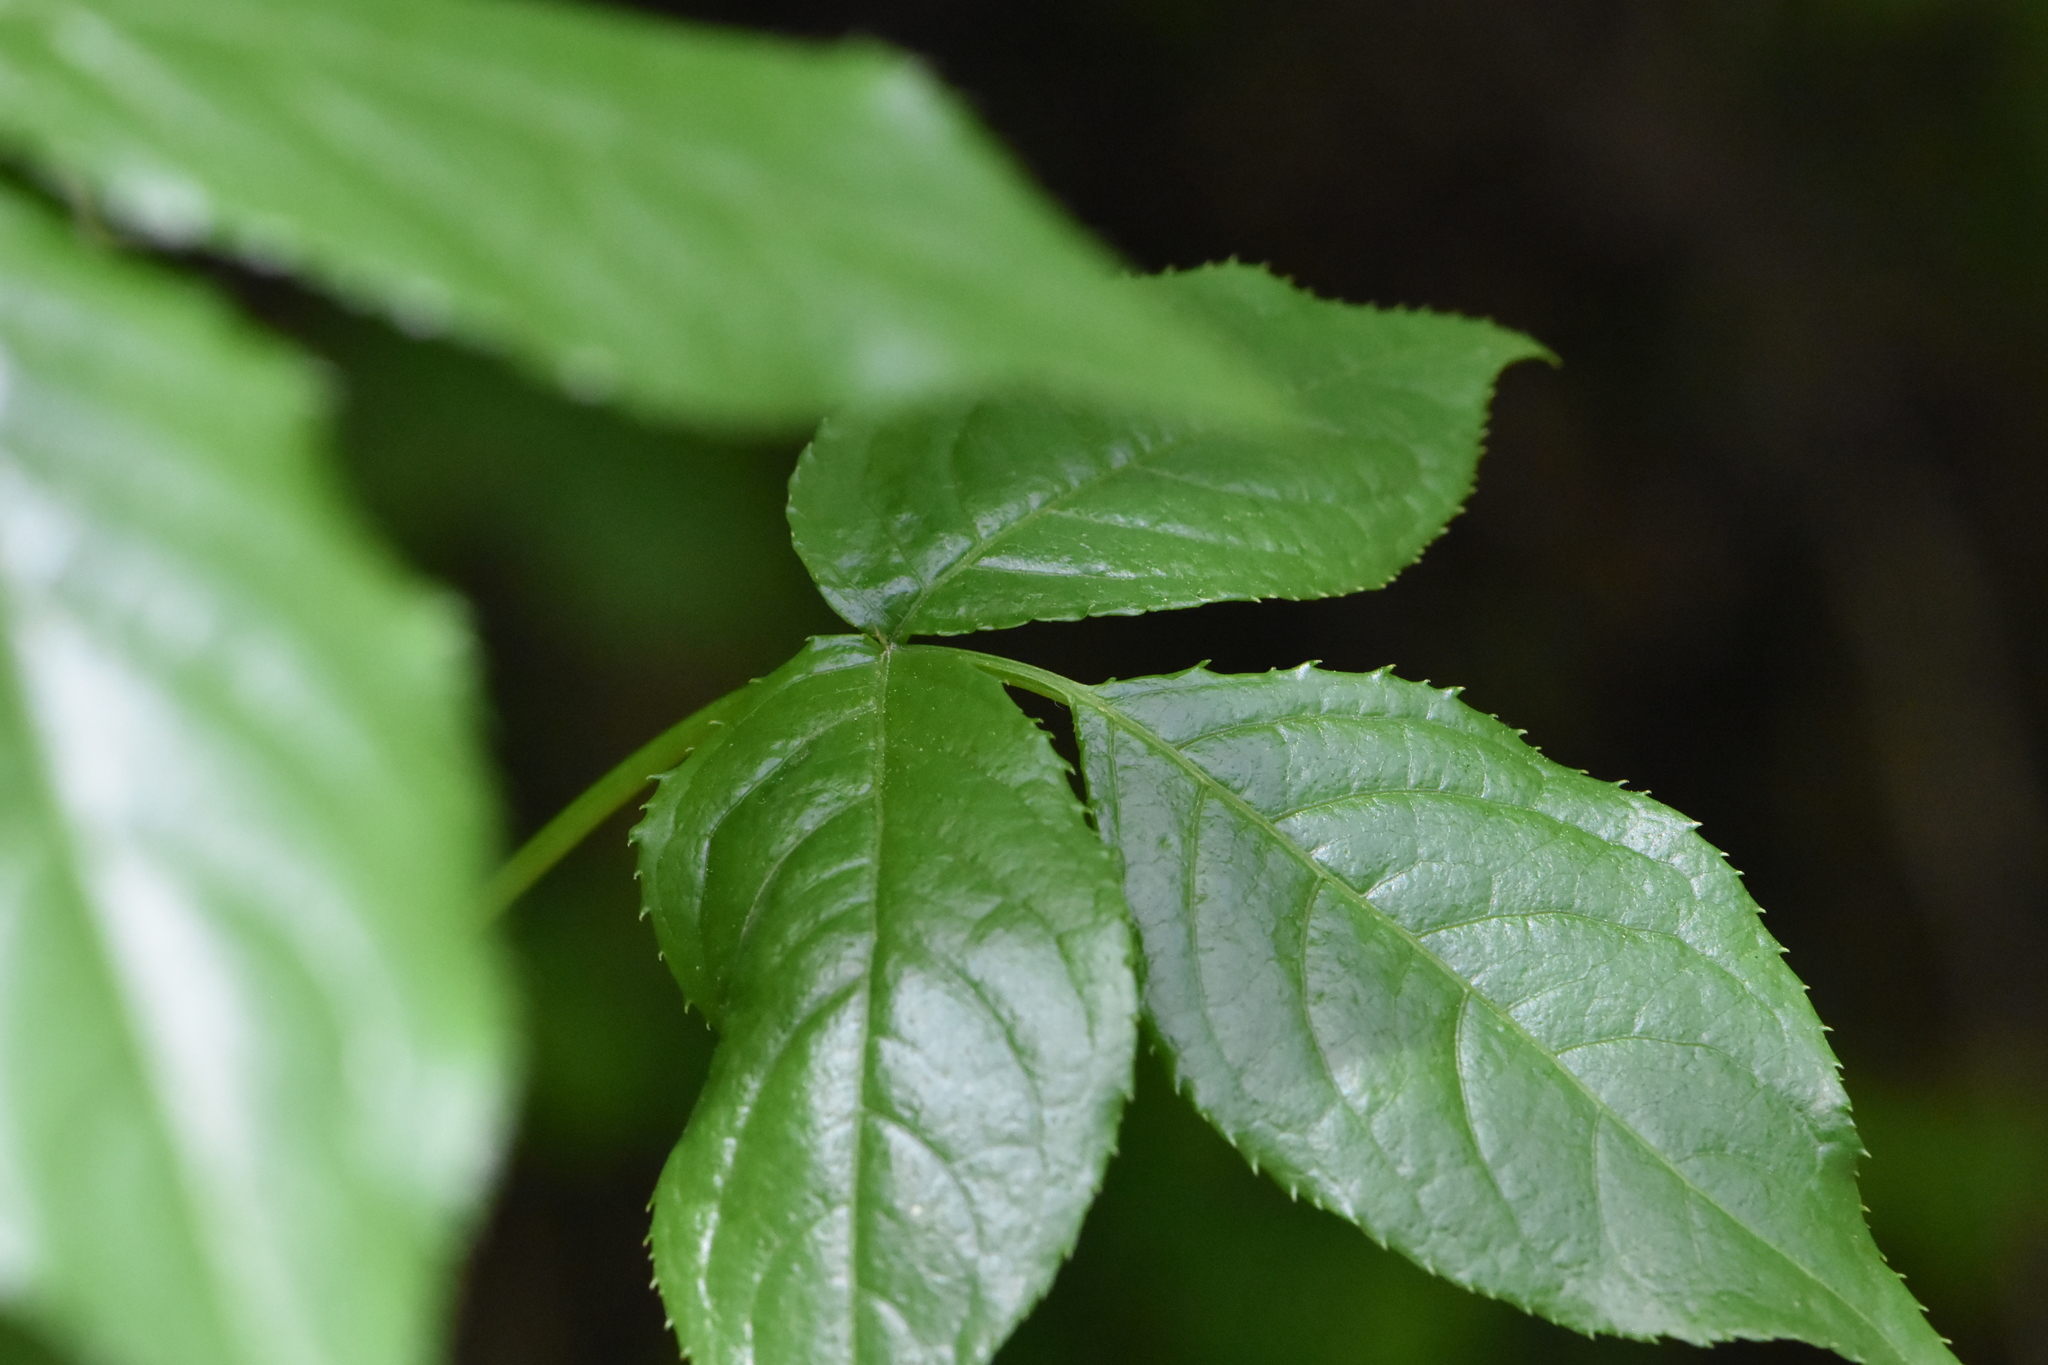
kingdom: Plantae
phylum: Tracheophyta
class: Magnoliopsida
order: Celastrales
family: Celastraceae
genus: Euonymus
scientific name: Euonymus leiophloeus
